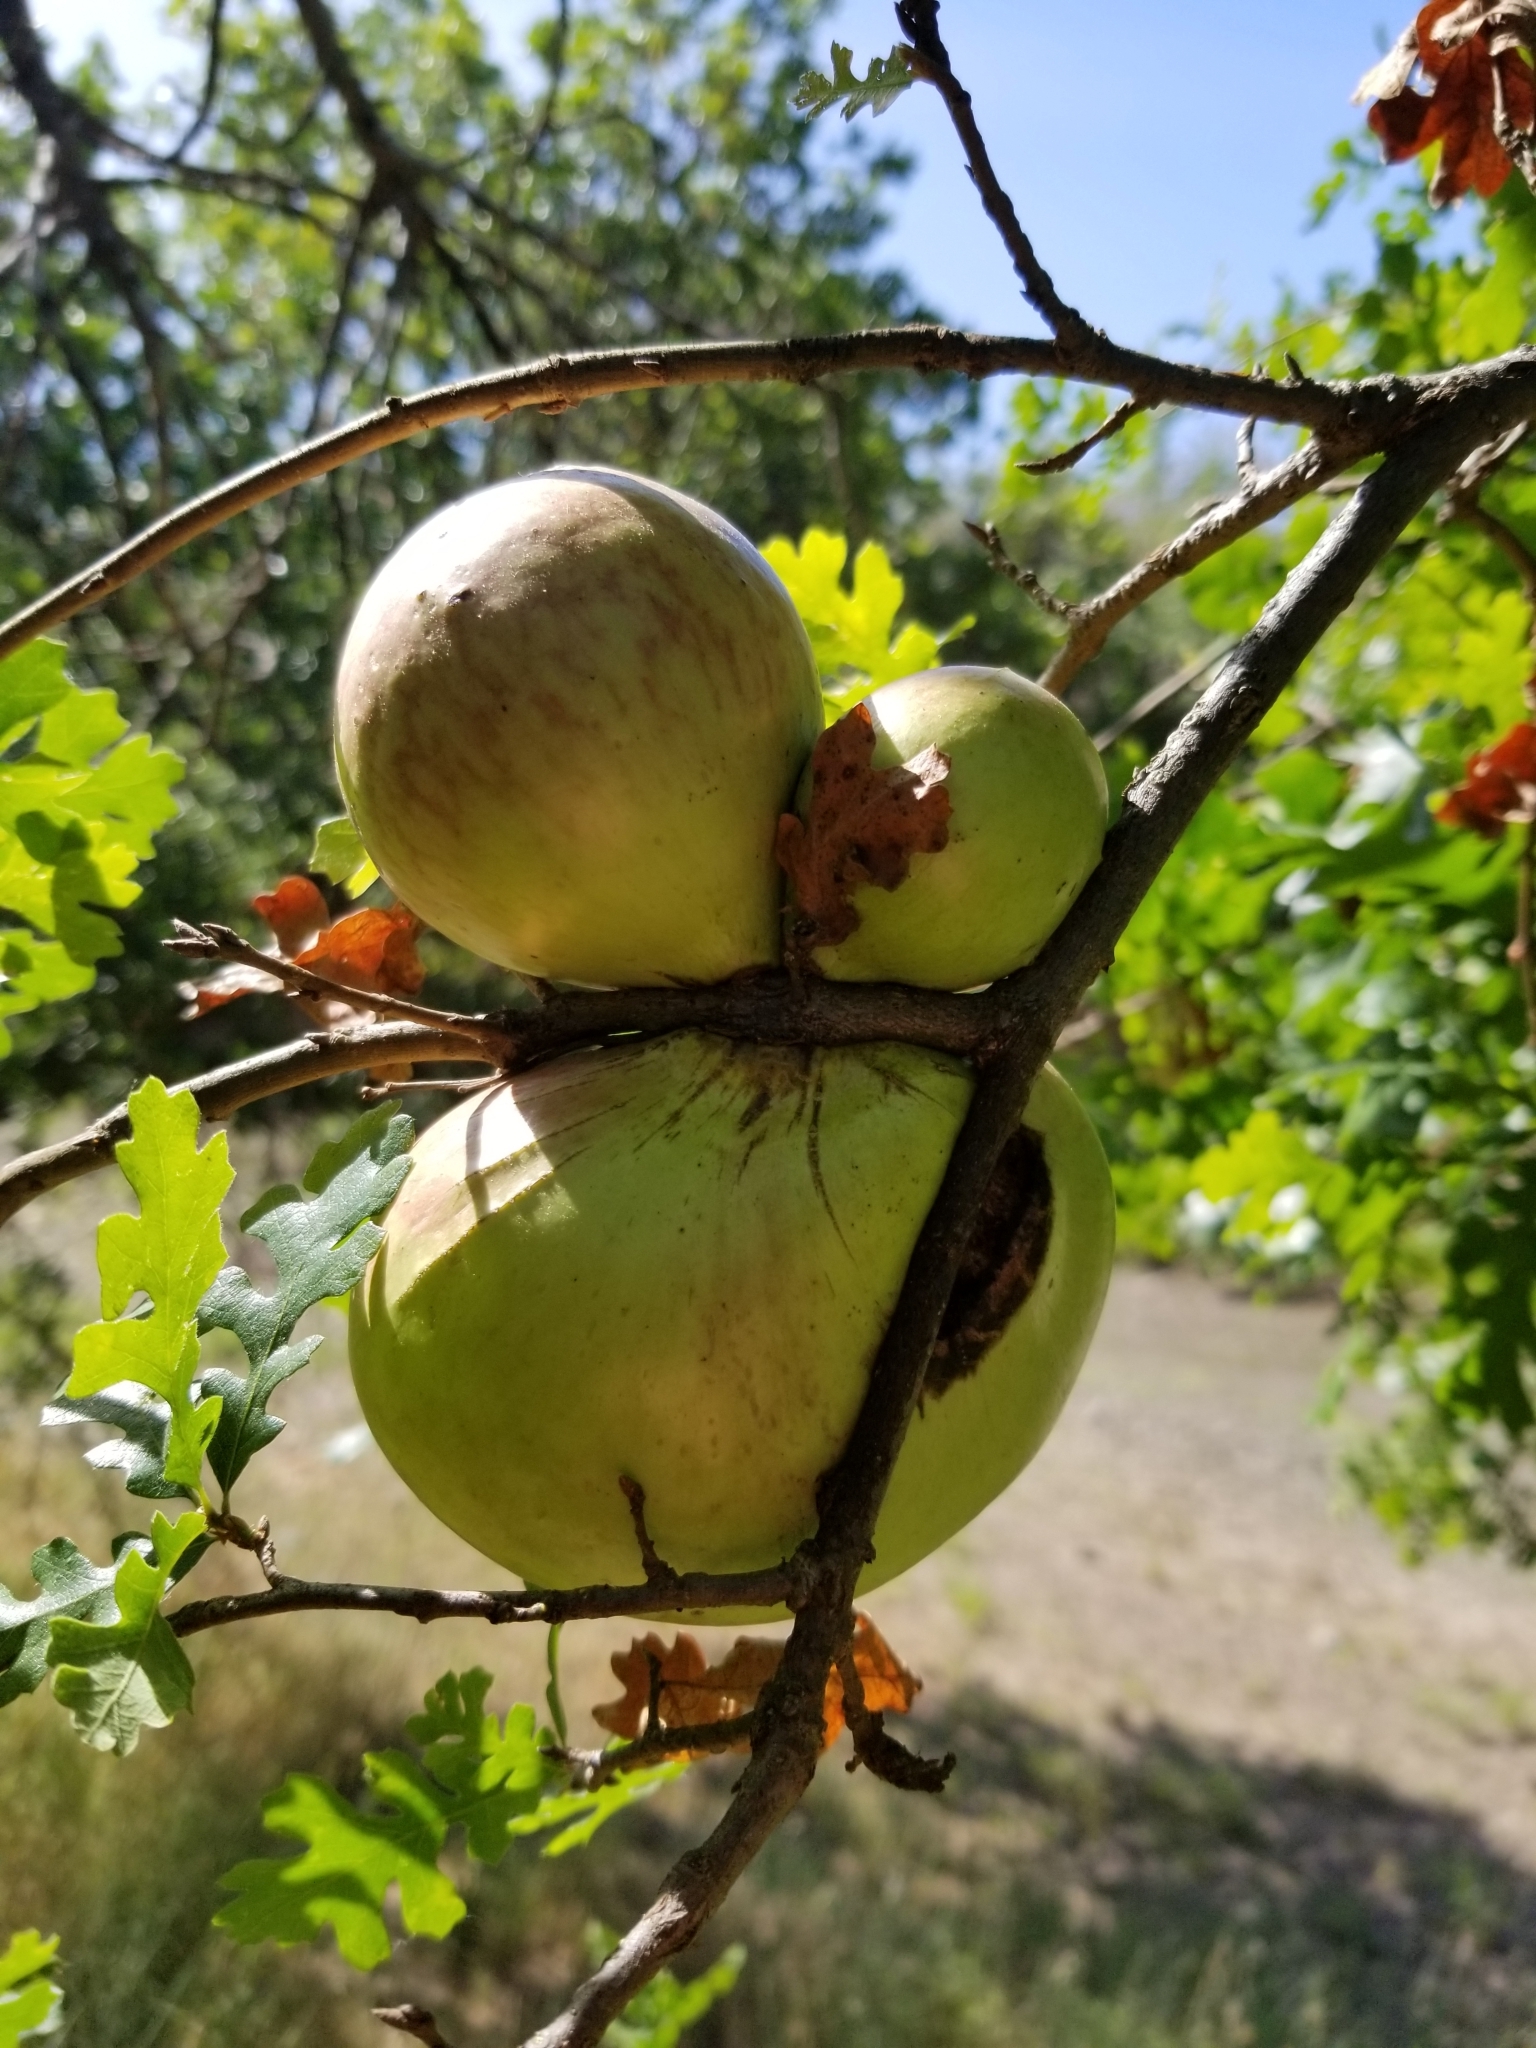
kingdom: Animalia
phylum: Arthropoda
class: Insecta
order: Hymenoptera
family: Cynipidae
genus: Andricus
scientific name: Andricus quercuscalifornicus
